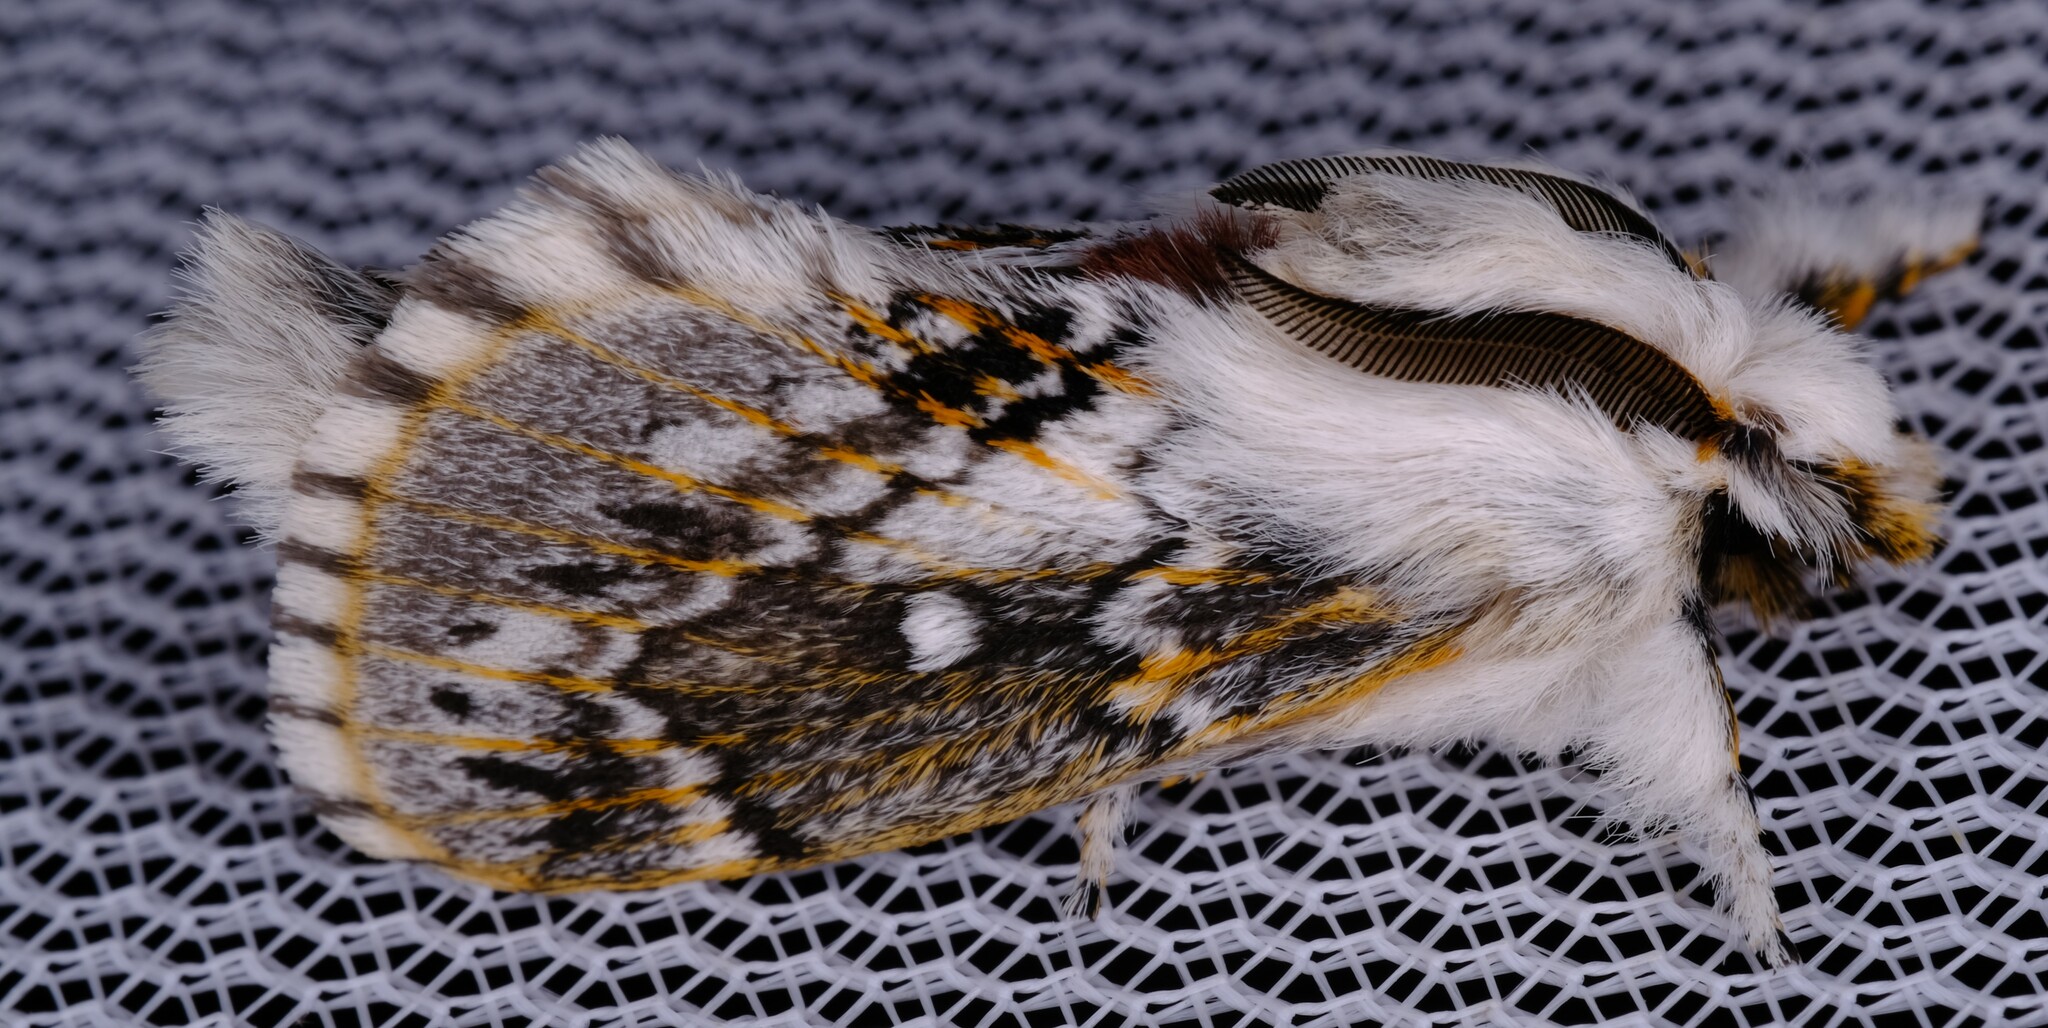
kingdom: Animalia
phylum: Arthropoda
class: Insecta
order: Lepidoptera
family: Lasiocampidae
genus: Porela
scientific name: Porela delineata
